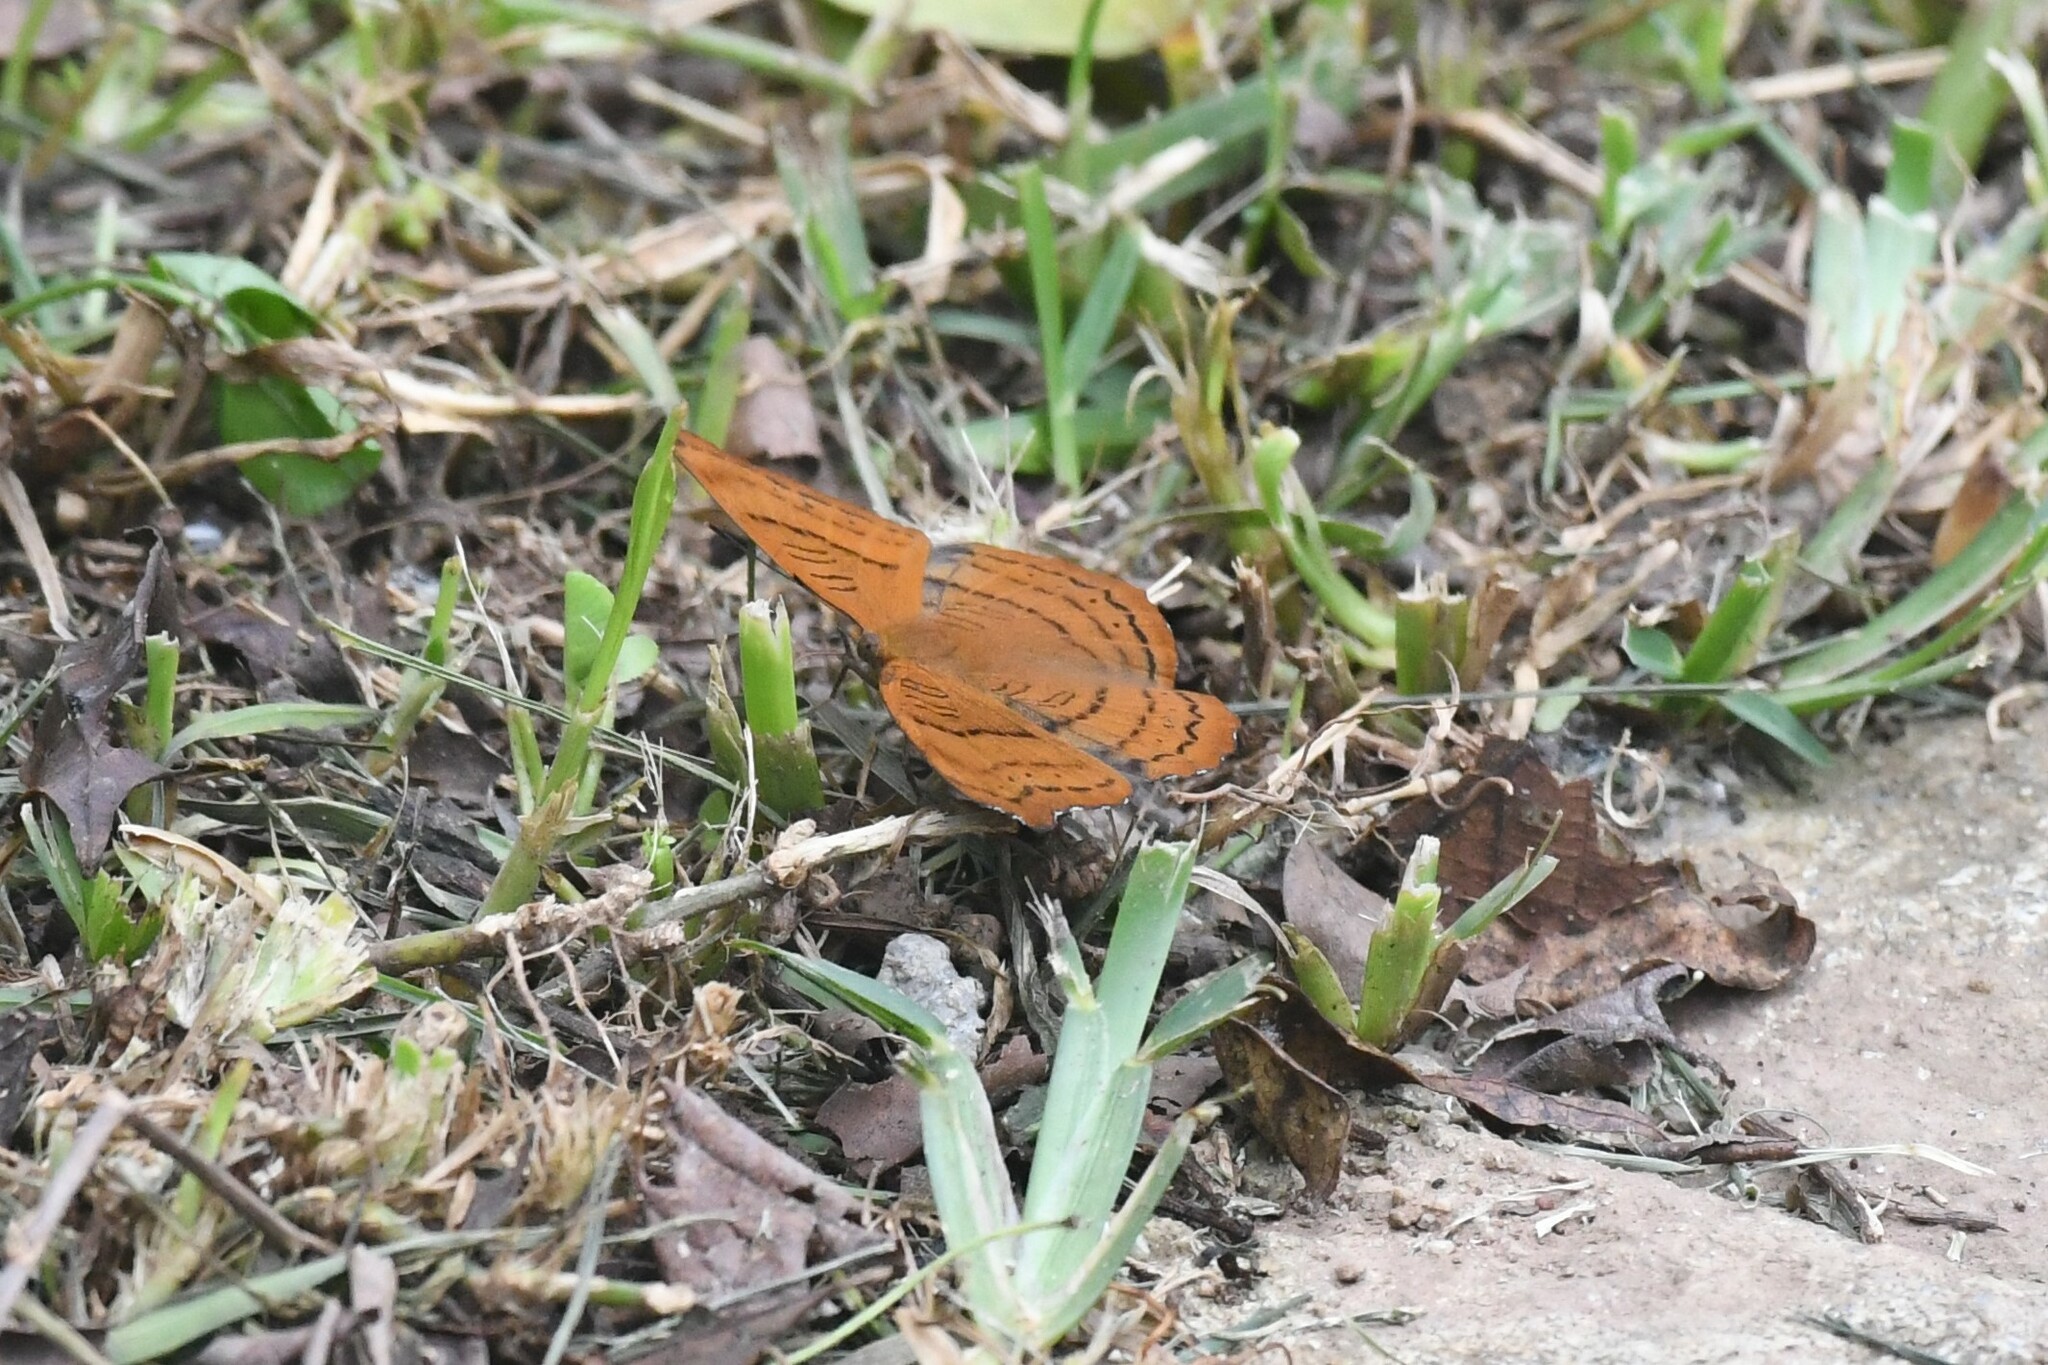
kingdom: Animalia
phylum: Arthropoda
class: Insecta
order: Lepidoptera
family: Nymphalidae
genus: Pseudergolis
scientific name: Pseudergolis wedah
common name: Tabby
